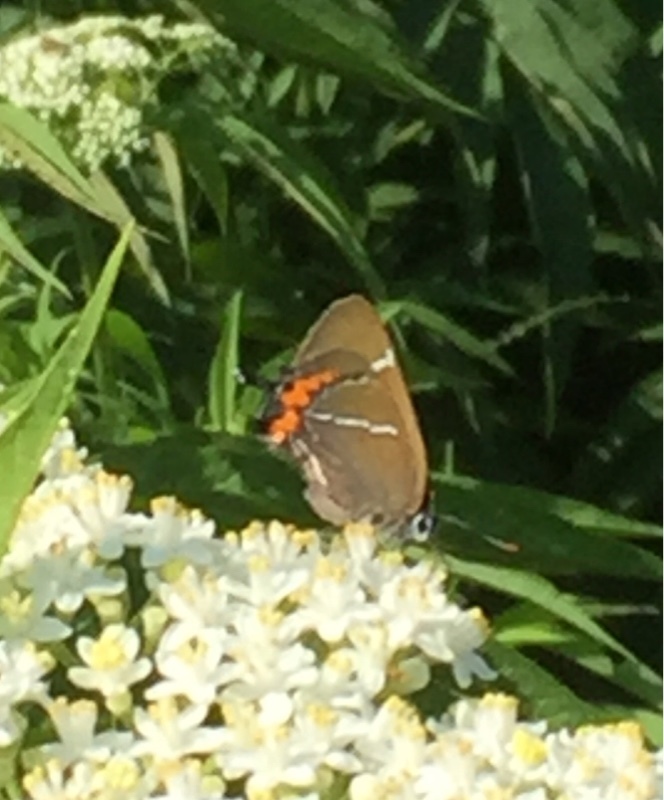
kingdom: Animalia
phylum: Arthropoda
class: Insecta
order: Lepidoptera
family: Lycaenidae
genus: Satyrium
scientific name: Satyrium w-album
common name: White-letter hairstreak
